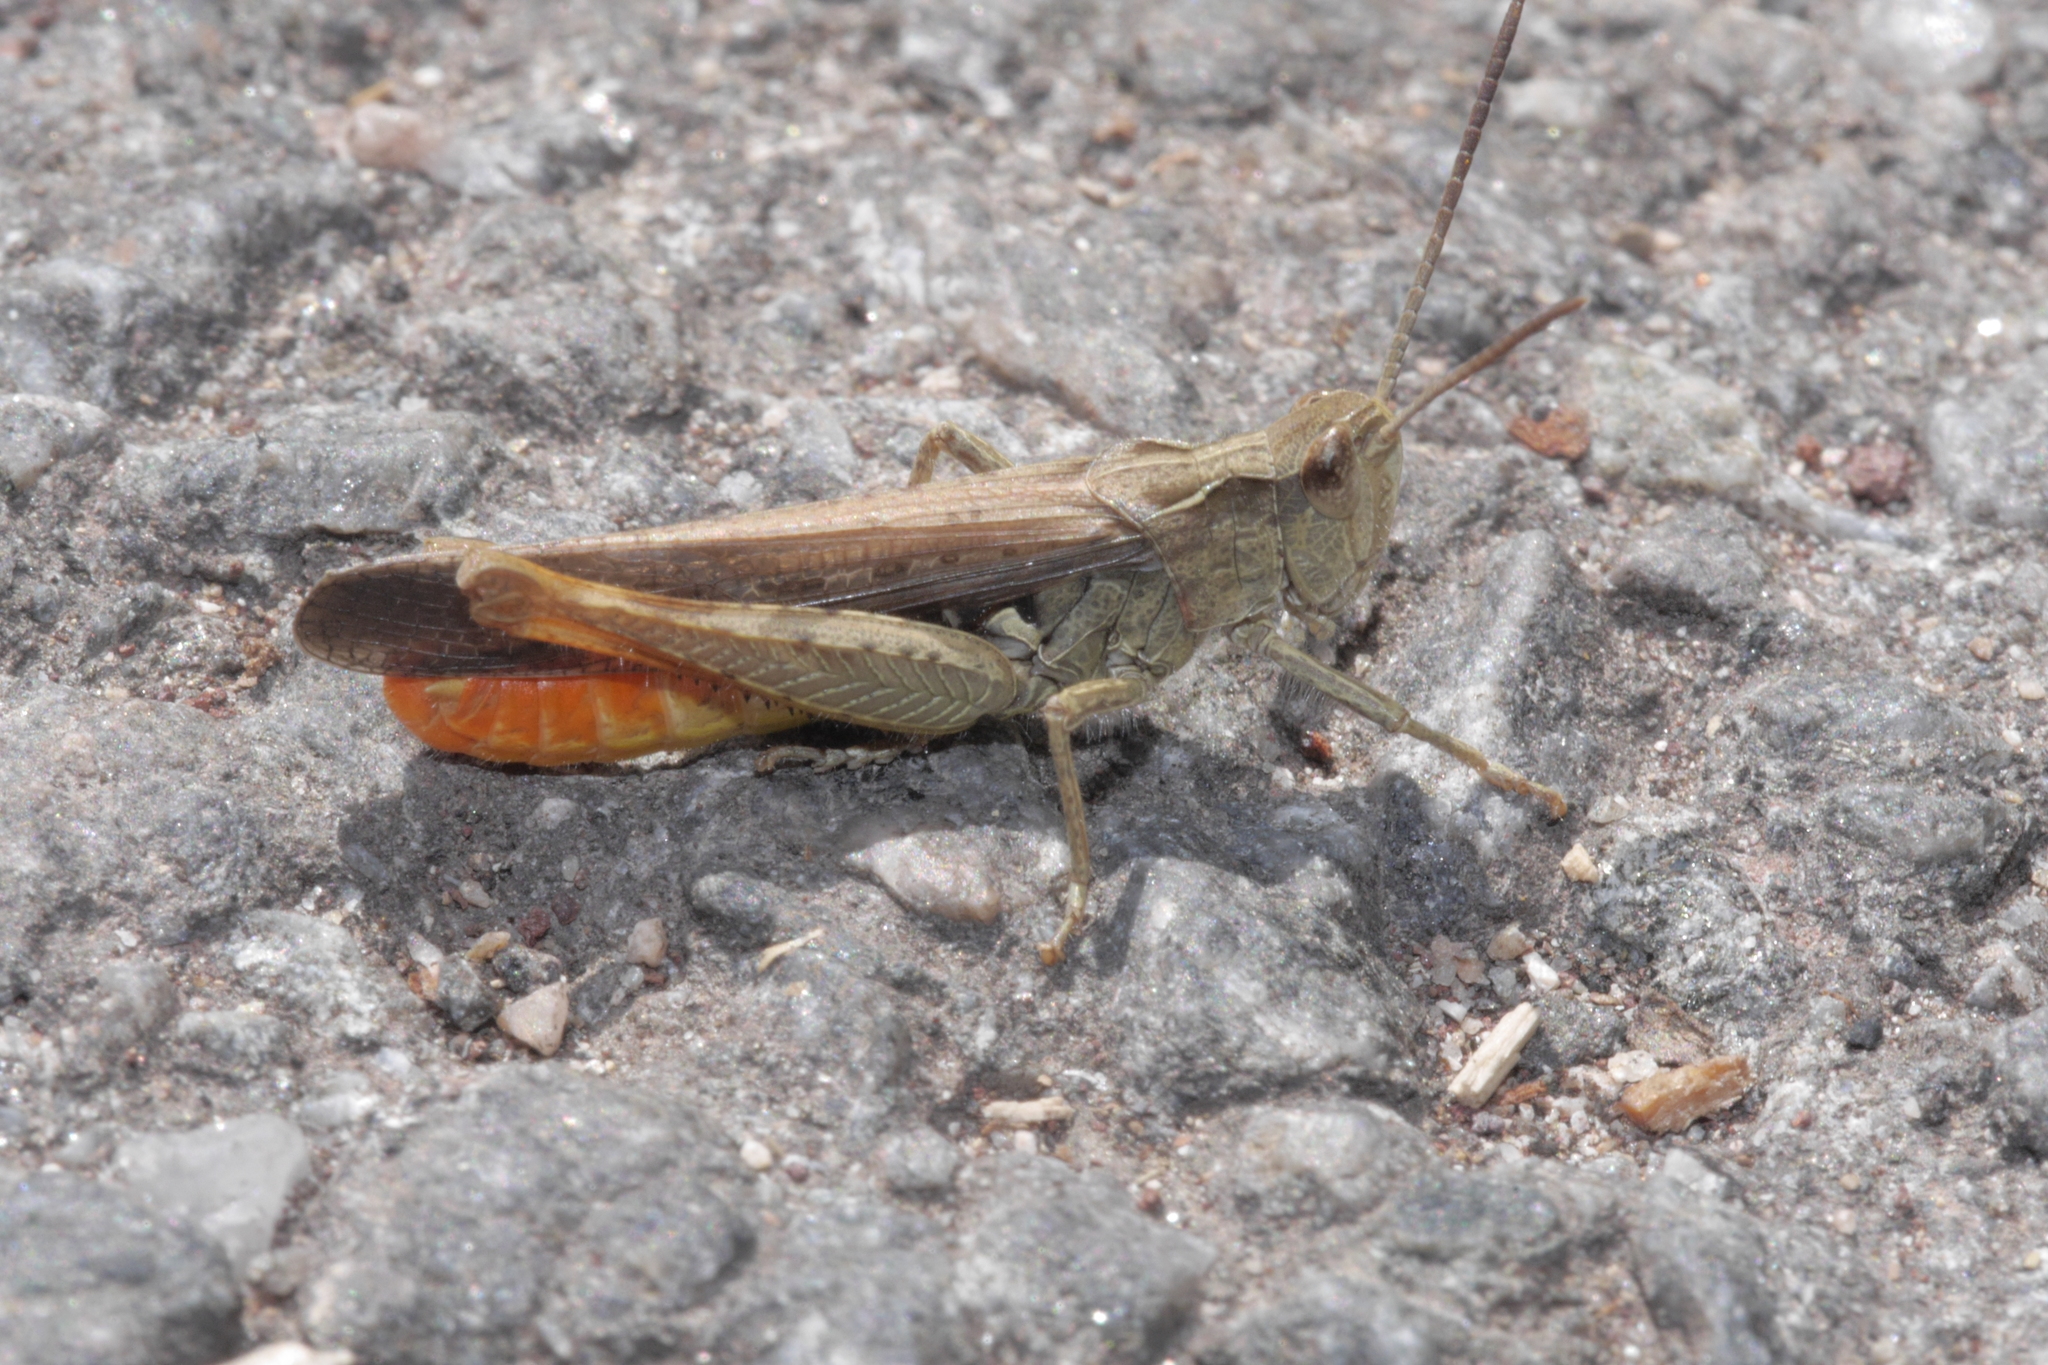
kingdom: Animalia
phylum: Arthropoda
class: Insecta
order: Orthoptera
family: Acrididae
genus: Chorthippus
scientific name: Chorthippus vagans
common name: Heath grasshopper
